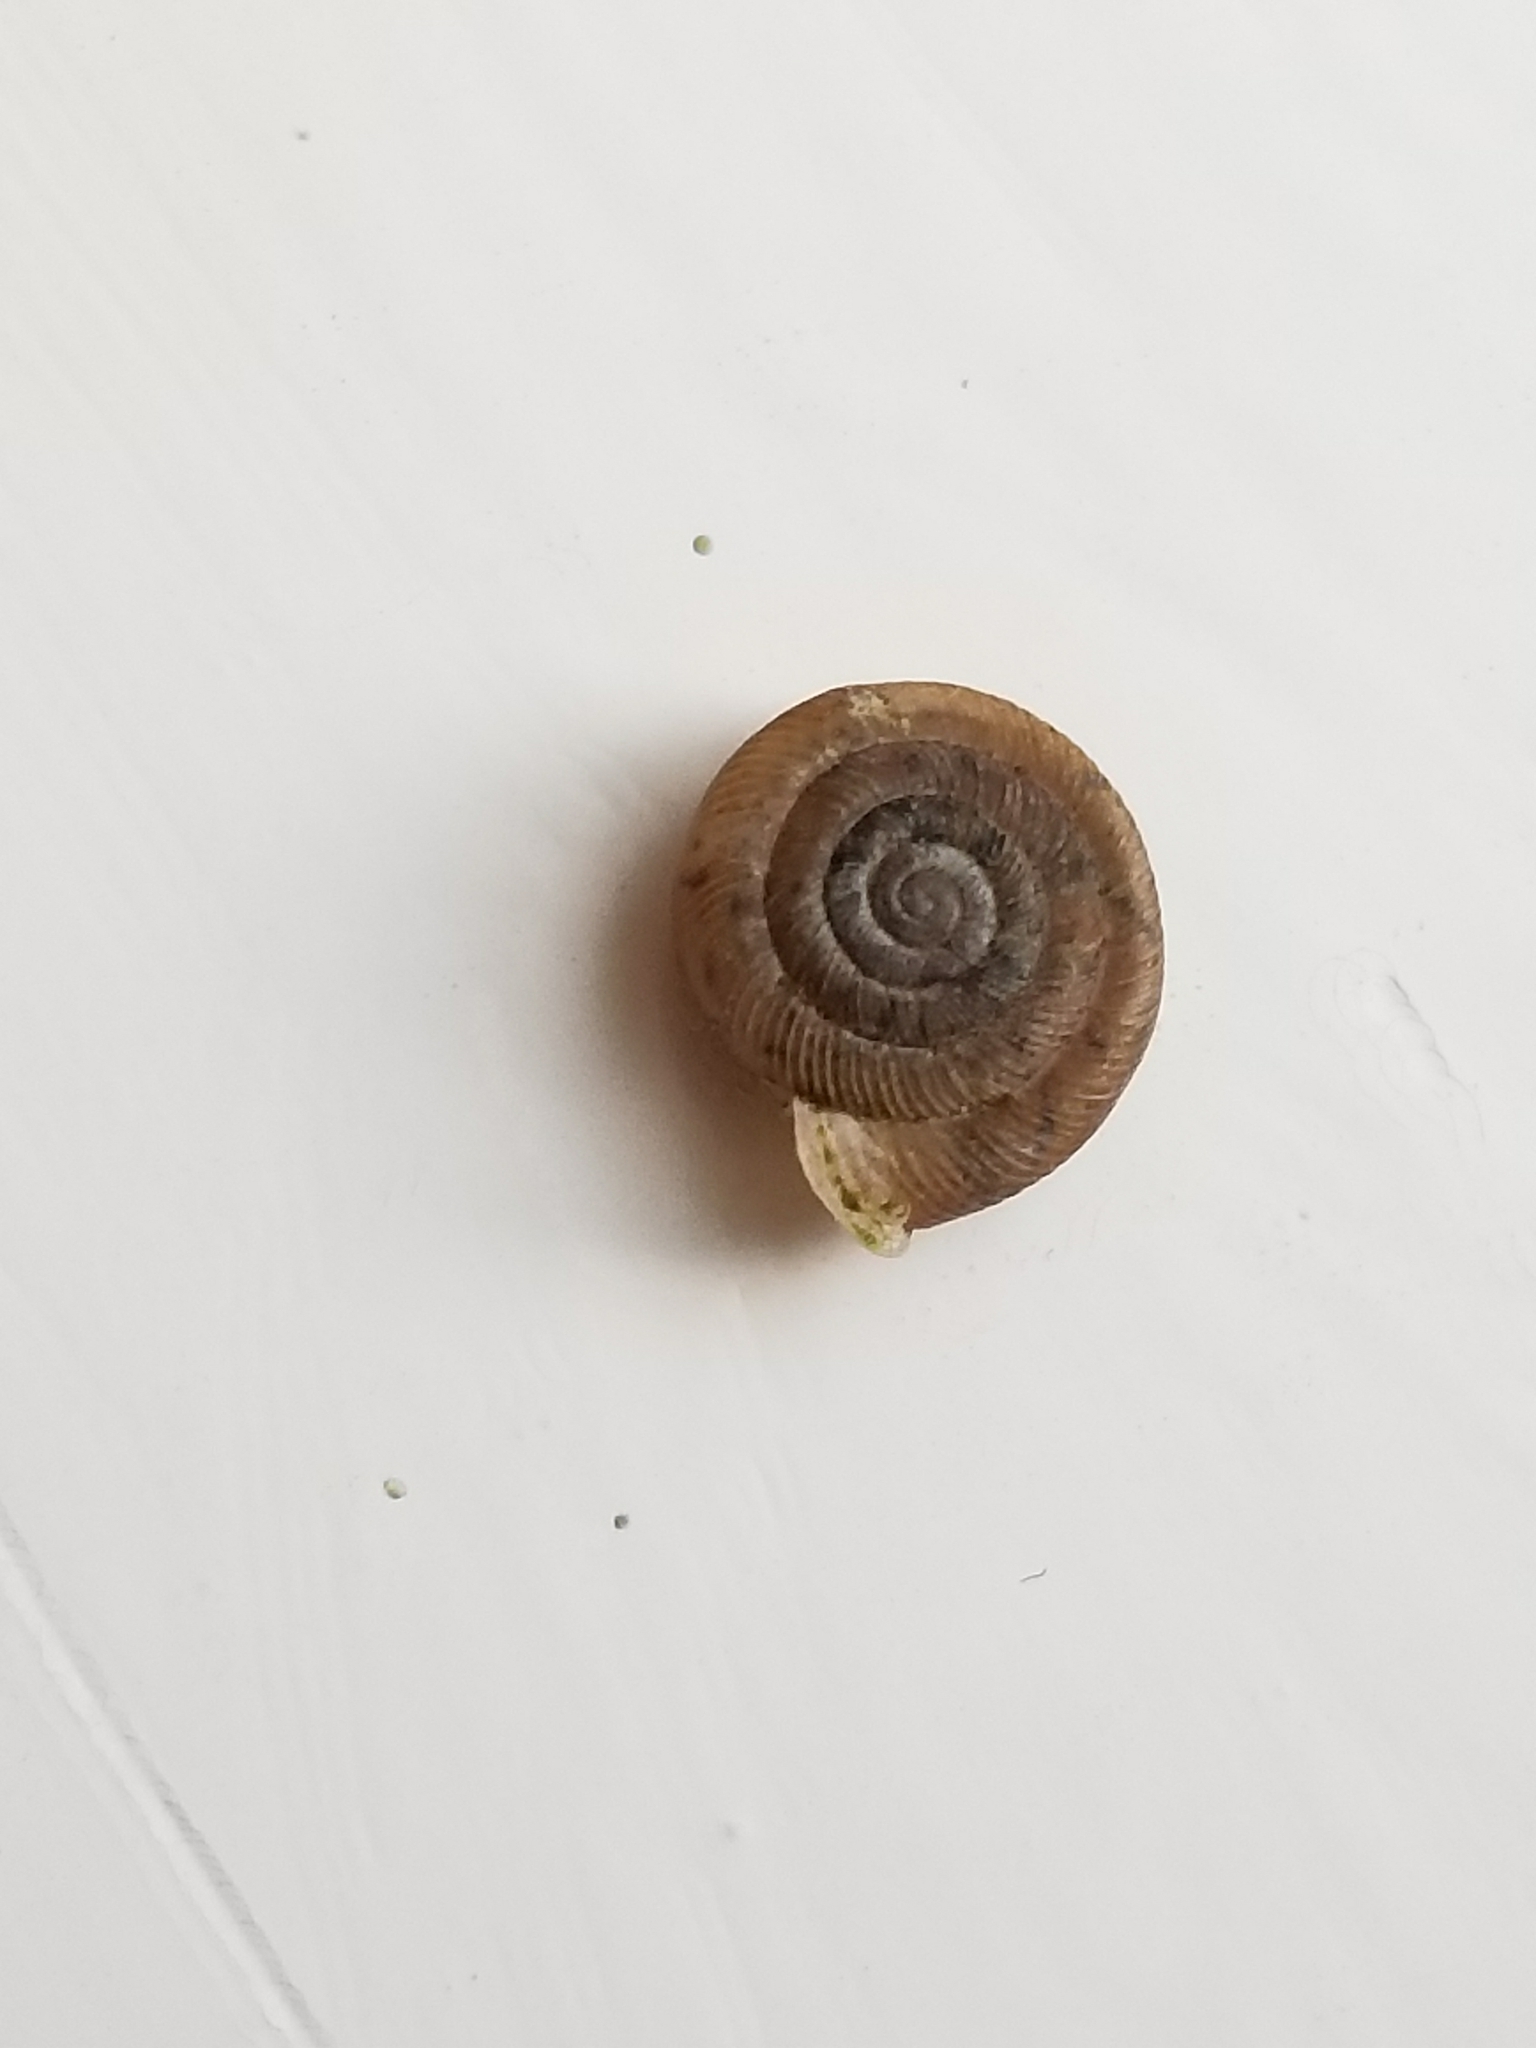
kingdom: Animalia
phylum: Mollusca
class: Gastropoda
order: Stylommatophora
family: Polygyridae
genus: Polygyra
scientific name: Polygyra cereolus
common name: Southern flatcone snail
